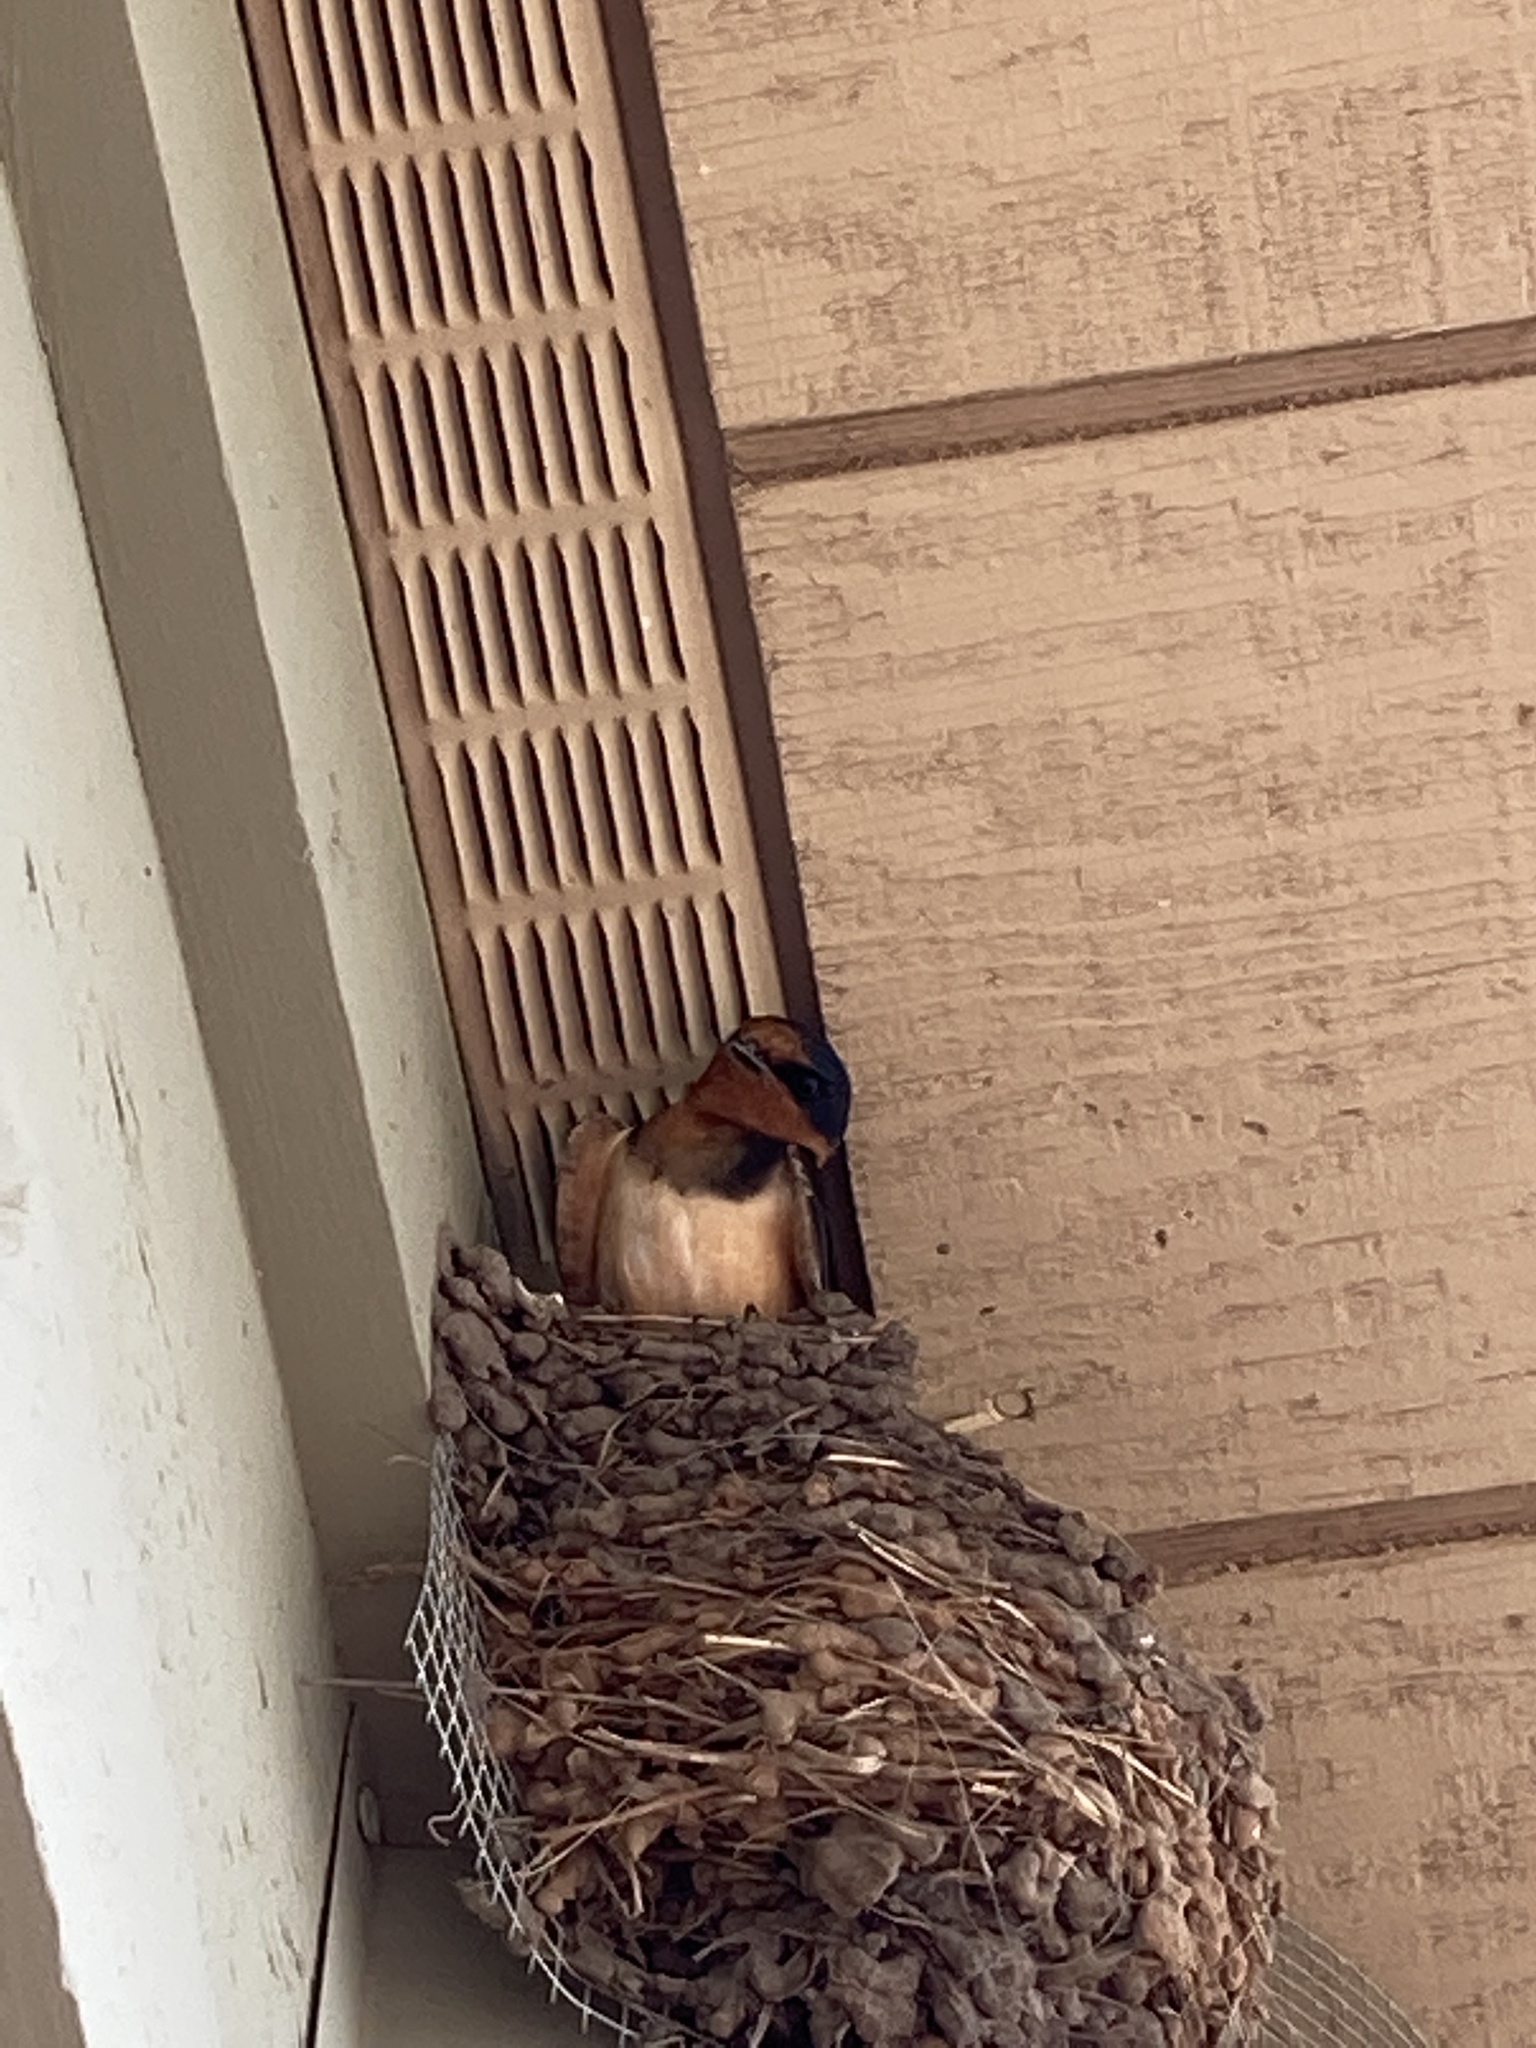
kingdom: Animalia
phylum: Chordata
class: Aves
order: Passeriformes
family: Hirundinidae
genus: Hirundo
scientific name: Hirundo rustica
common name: Barn swallow
